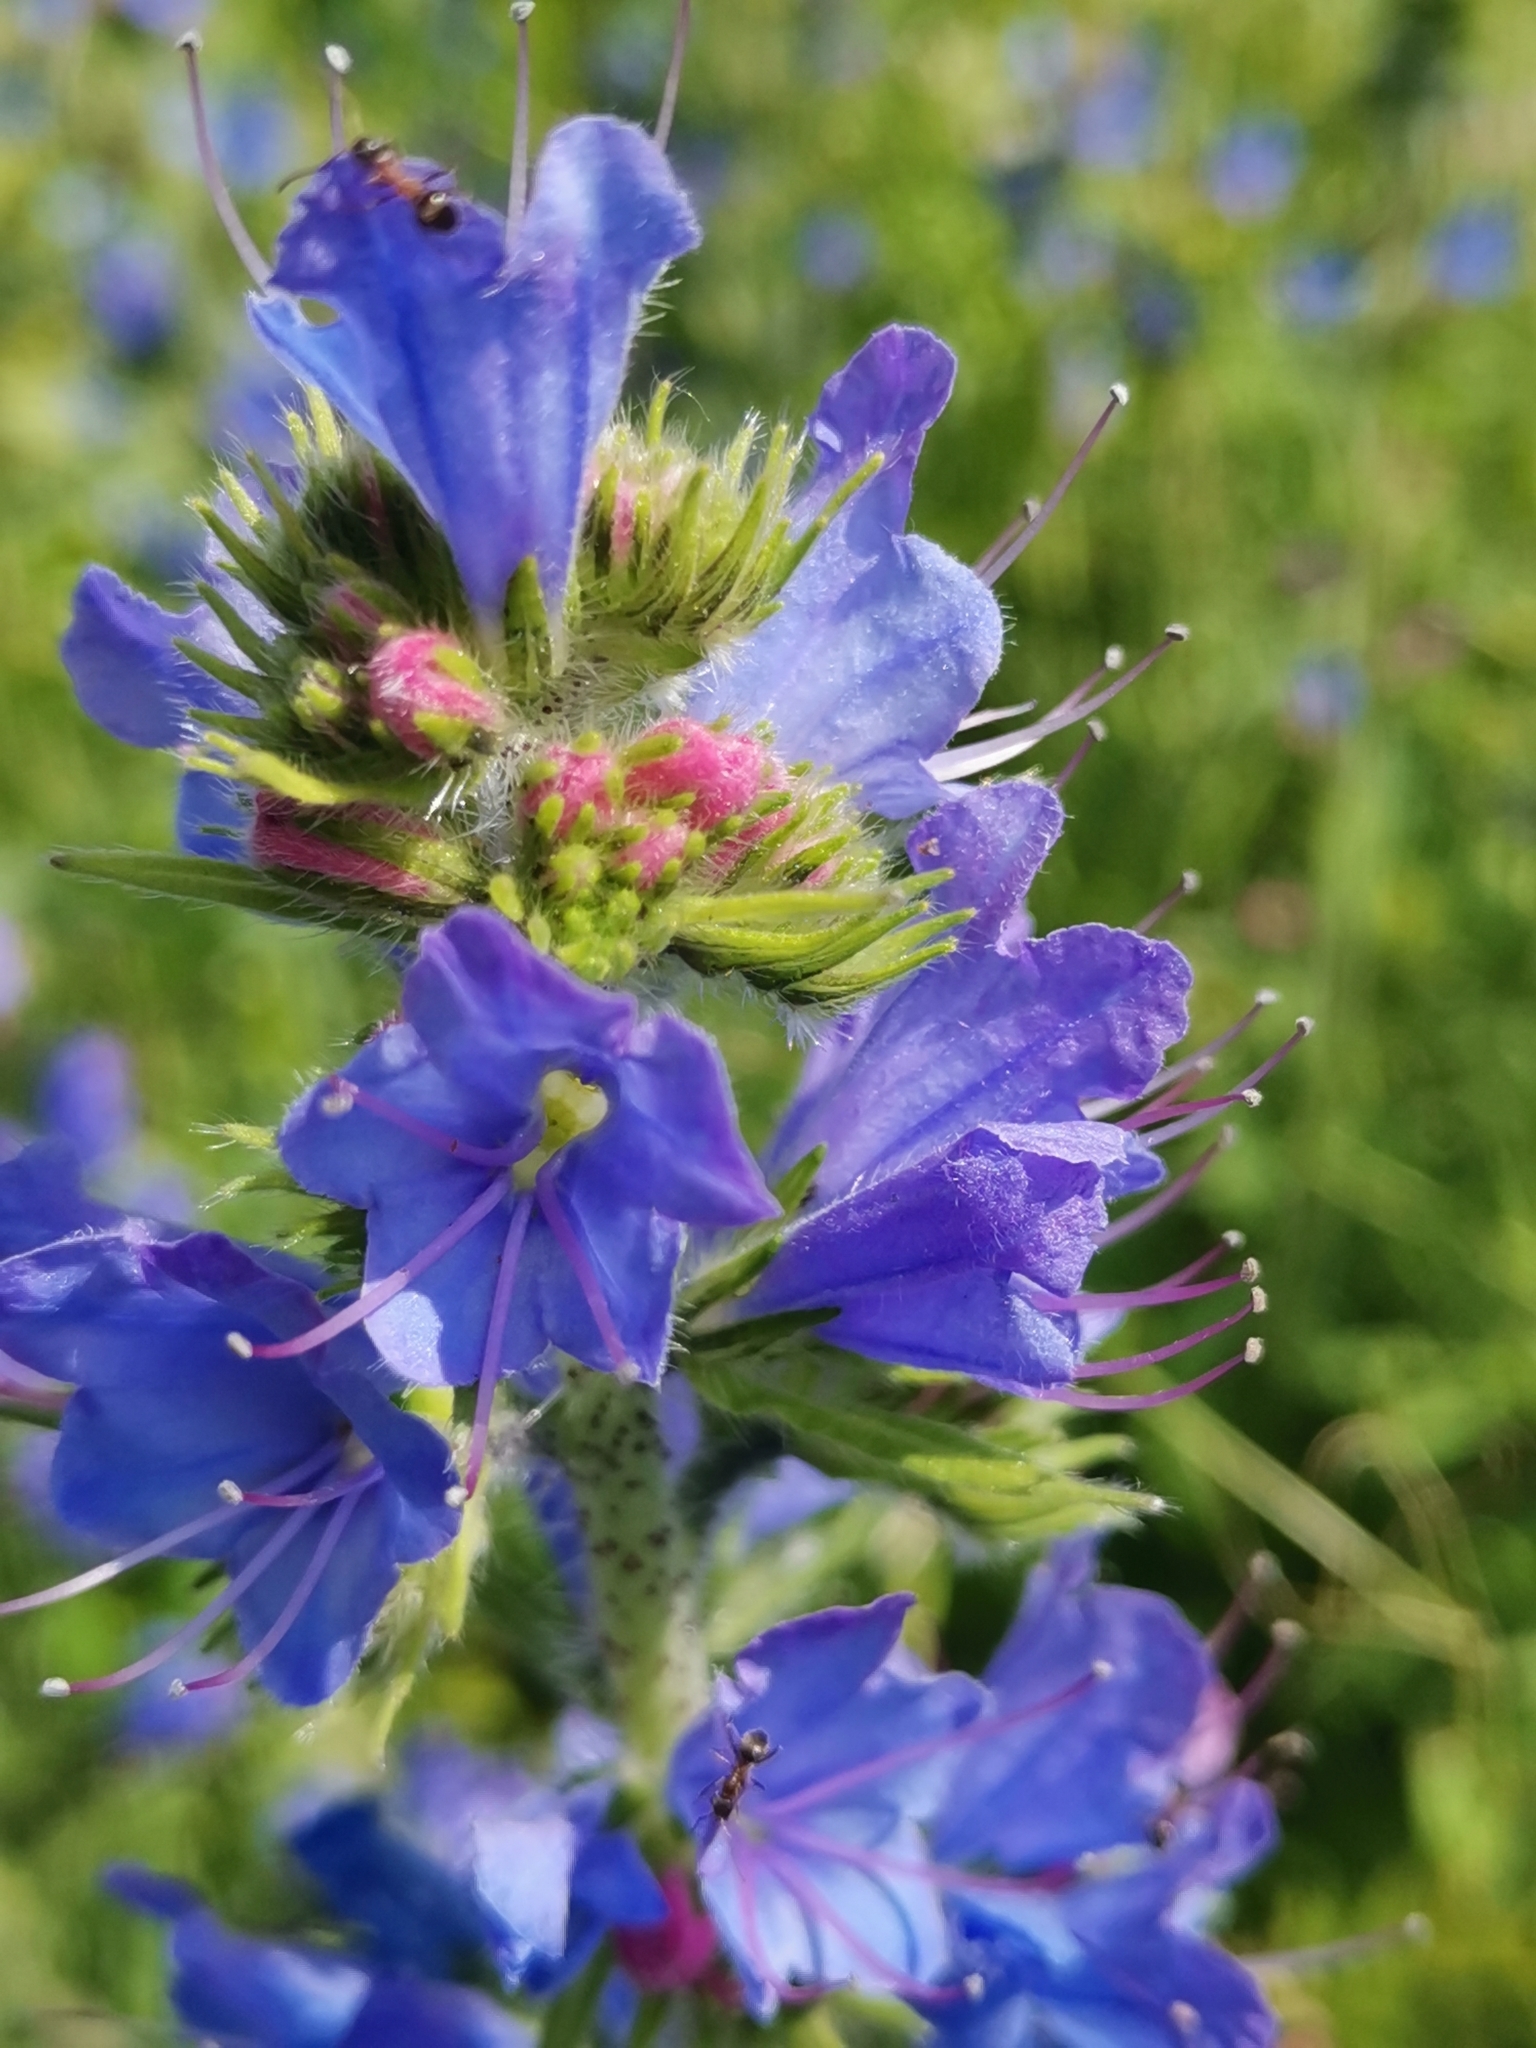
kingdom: Plantae
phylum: Tracheophyta
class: Magnoliopsida
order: Boraginales
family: Boraginaceae
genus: Echium
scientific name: Echium vulgare
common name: Common viper's bugloss
